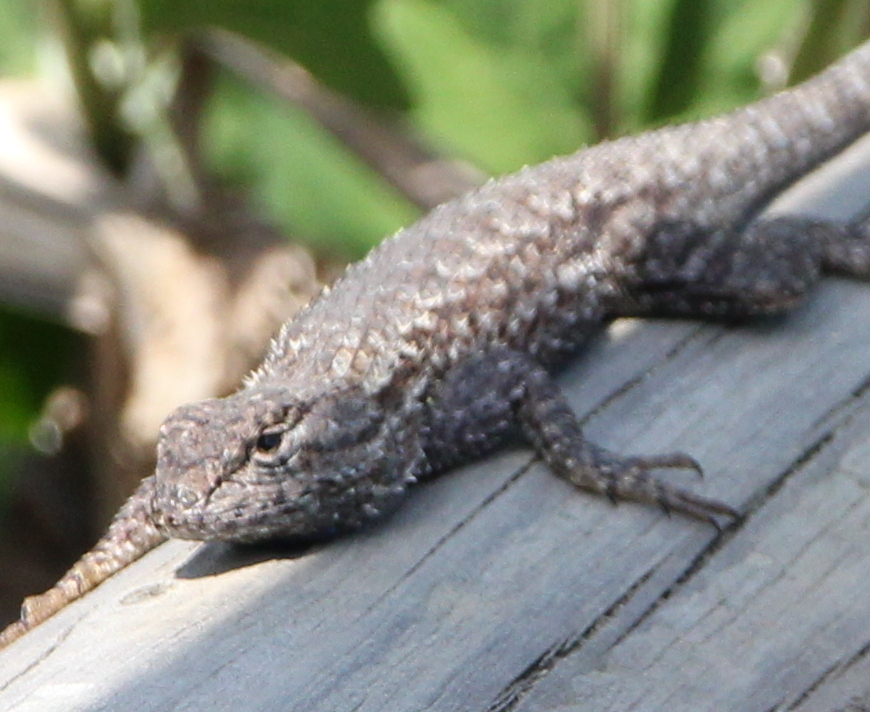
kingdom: Animalia
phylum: Chordata
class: Squamata
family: Phrynosomatidae
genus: Sceloporus
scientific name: Sceloporus occidentalis
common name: Western fence lizard
